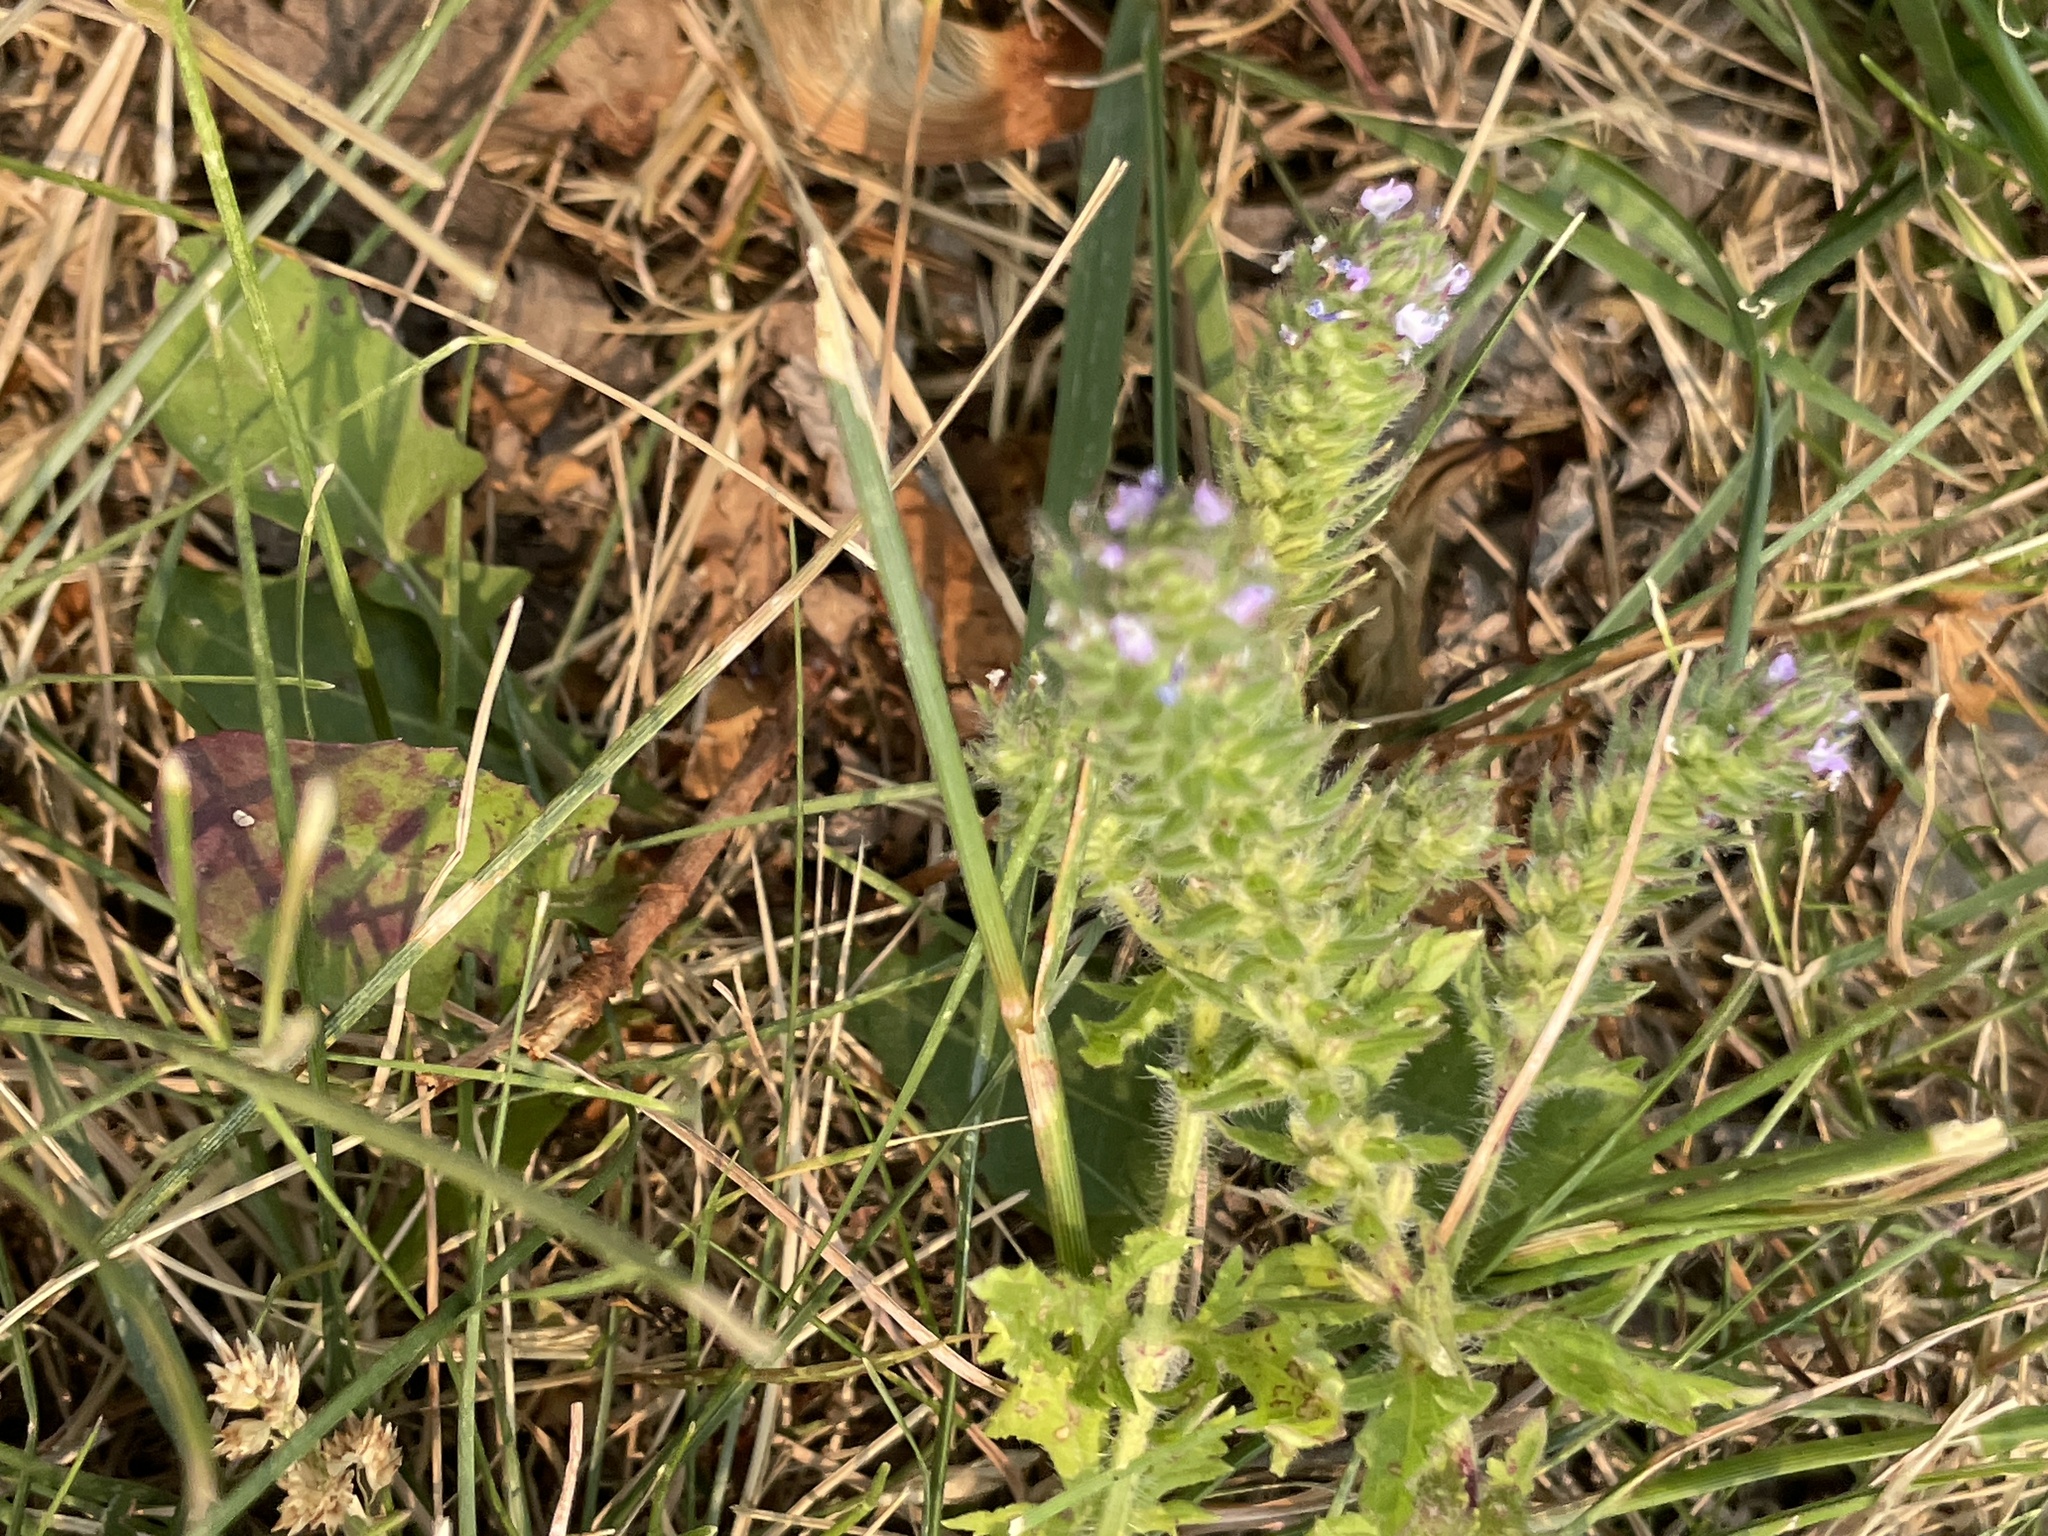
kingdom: Plantae
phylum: Tracheophyta
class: Magnoliopsida
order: Lamiales
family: Verbenaceae
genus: Verbena
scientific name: Verbena bracteata
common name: Bracted vervain
